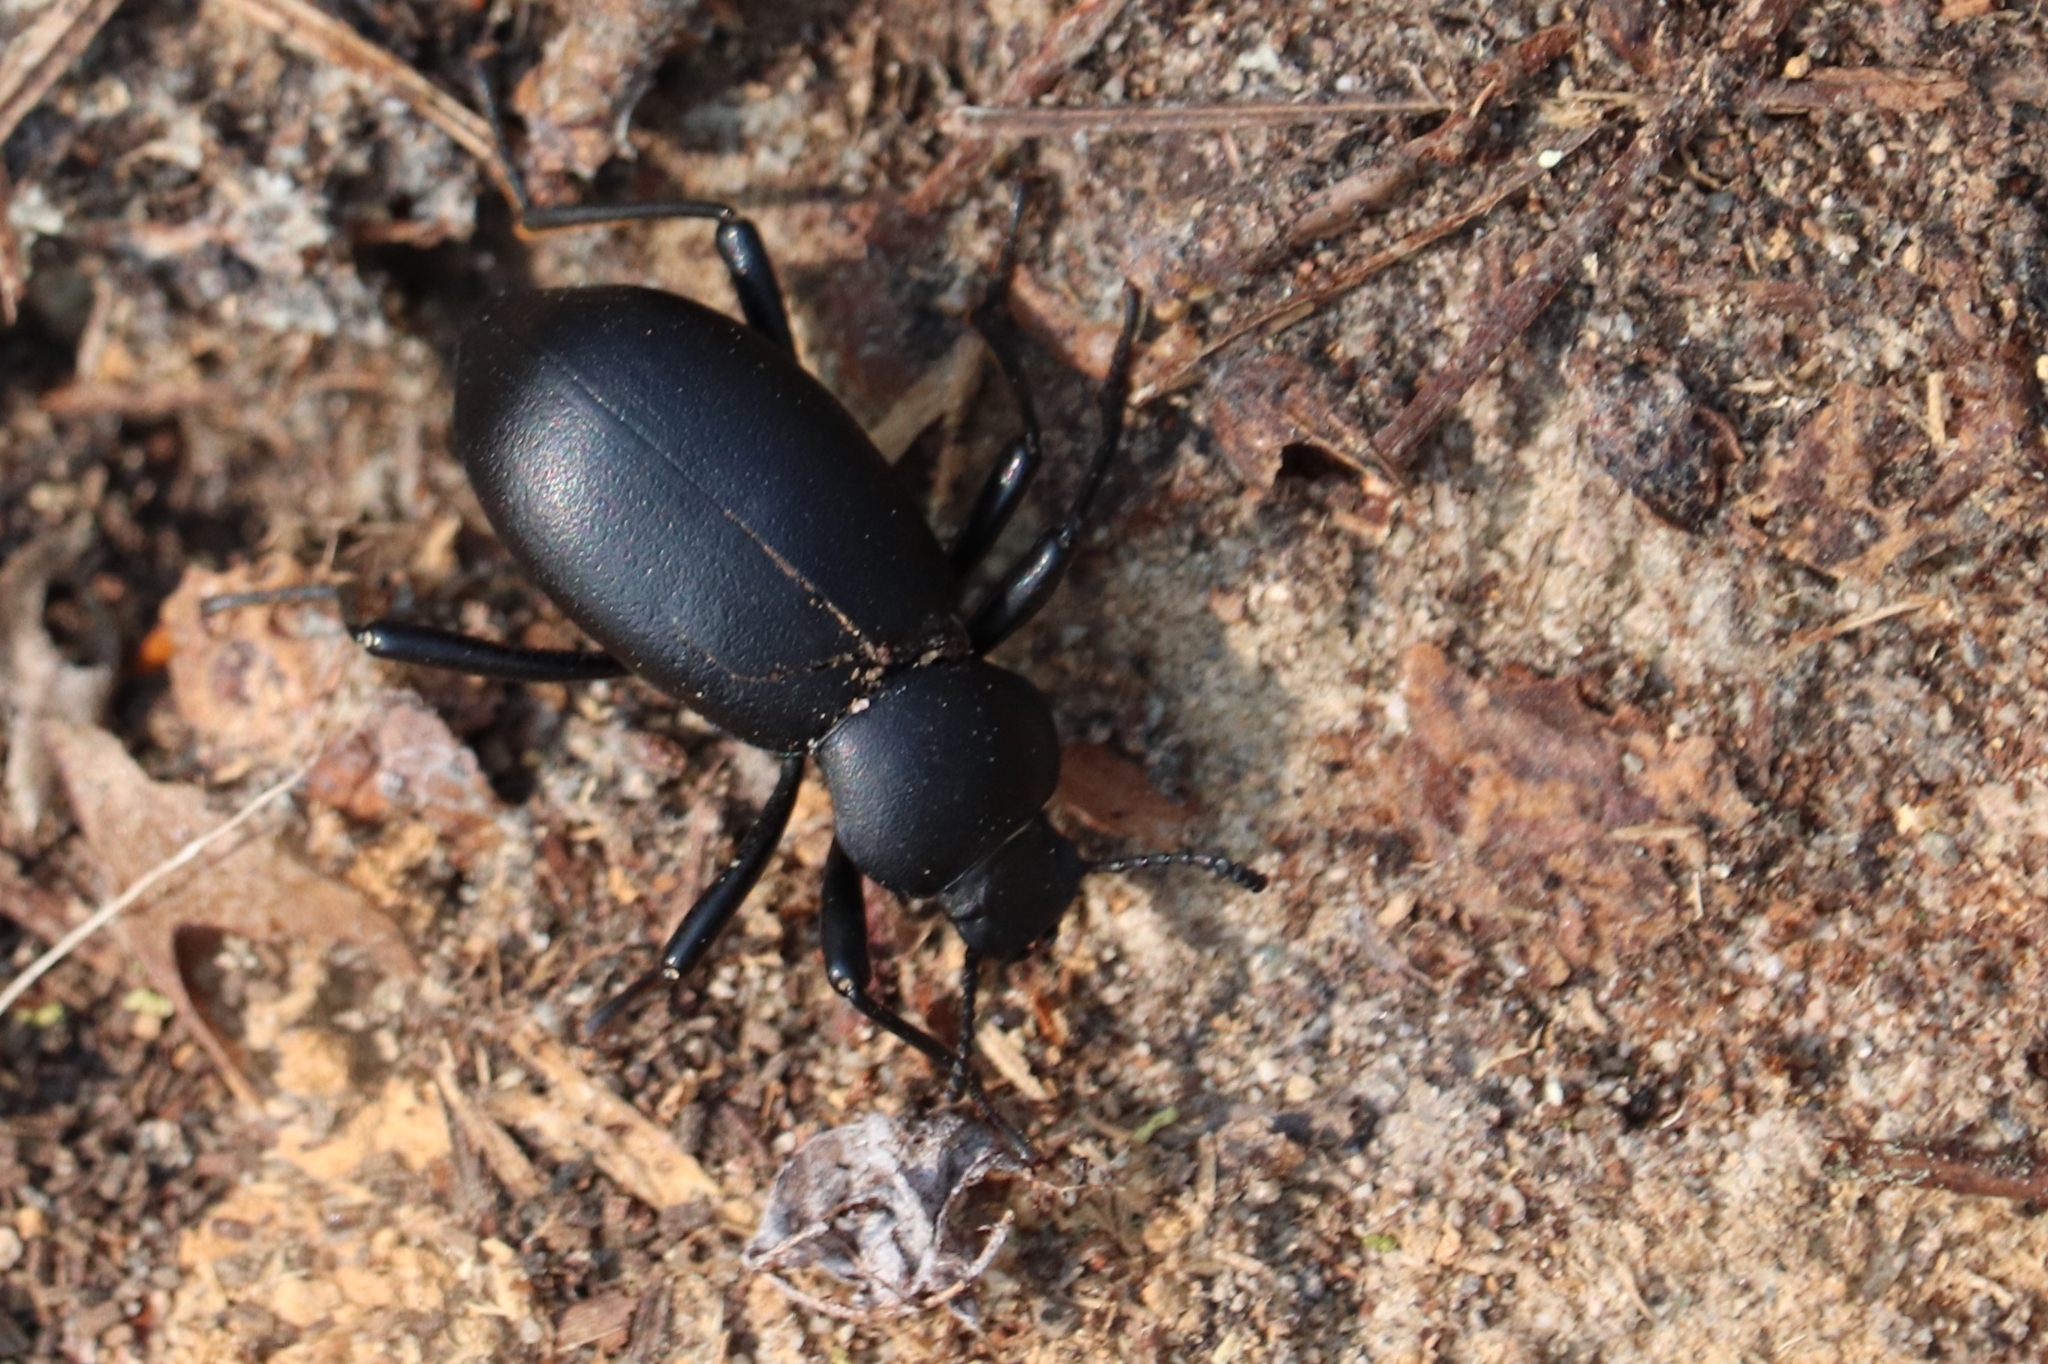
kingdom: Animalia
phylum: Arthropoda
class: Insecta
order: Coleoptera
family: Tenebrionidae
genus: Coelocnemis
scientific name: Coelocnemis dilaticollis
